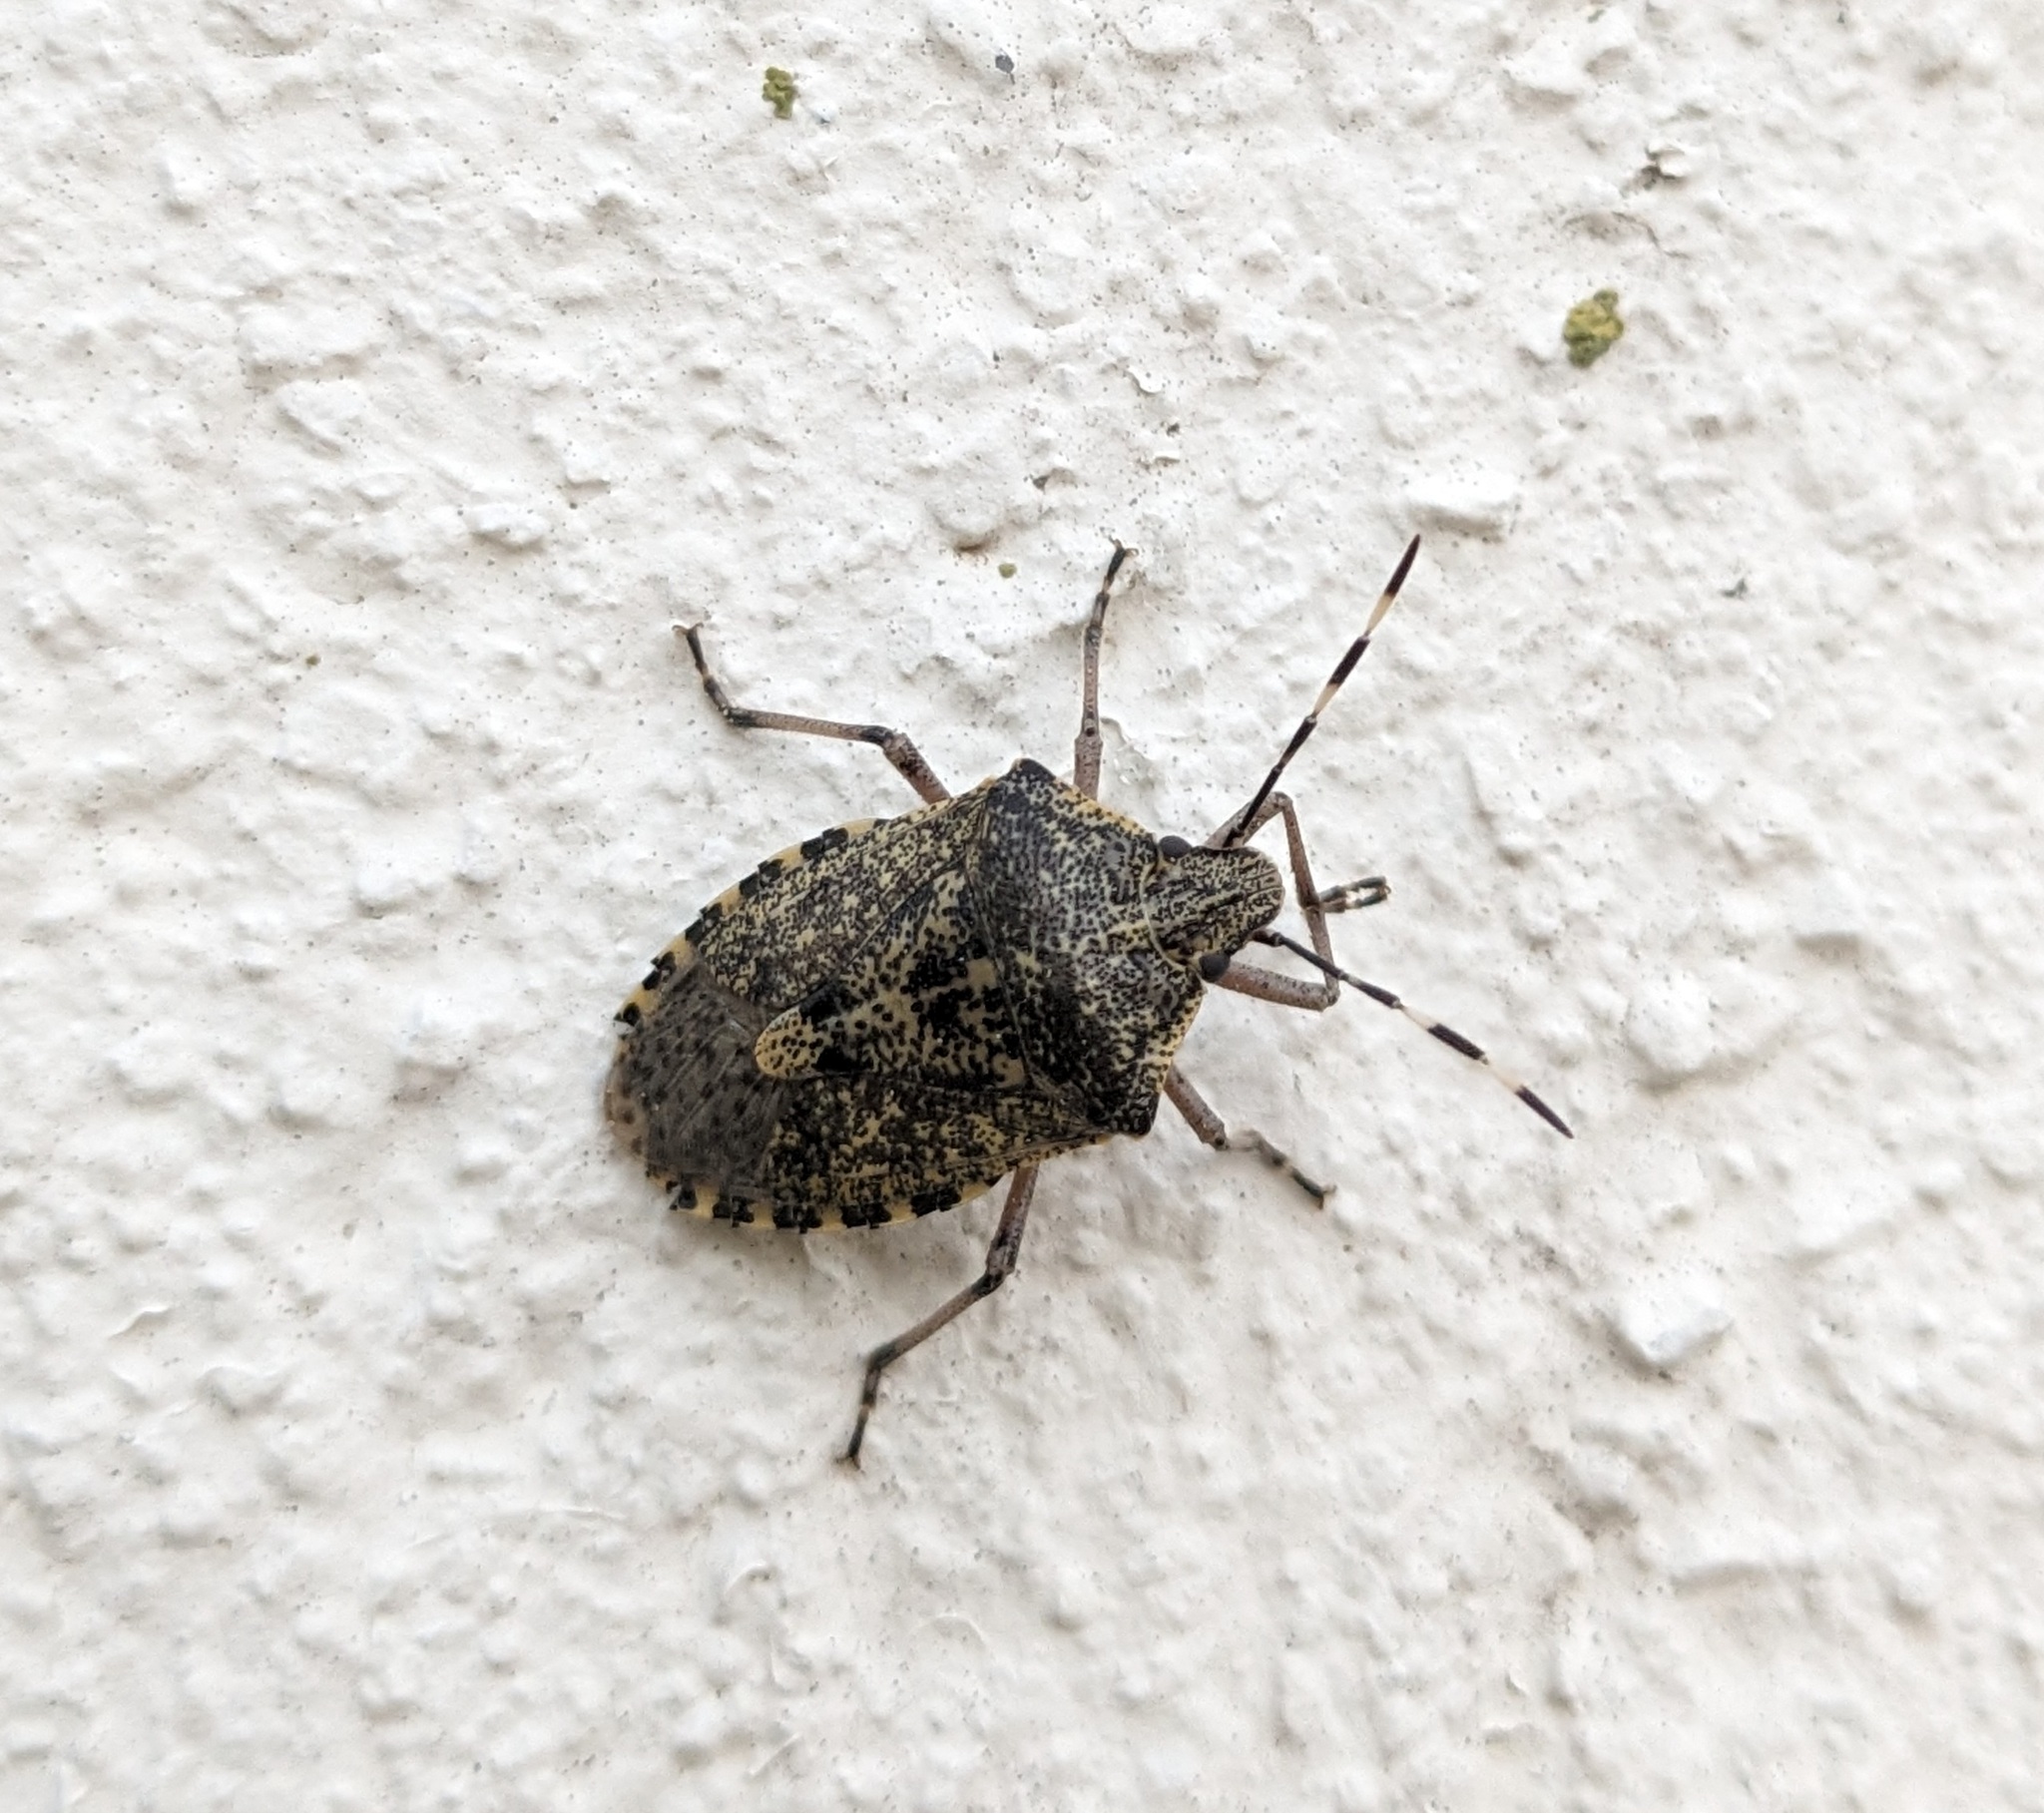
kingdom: Animalia
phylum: Arthropoda
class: Insecta
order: Hemiptera
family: Pentatomidae
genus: Rhaphigaster
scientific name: Rhaphigaster nebulosa
